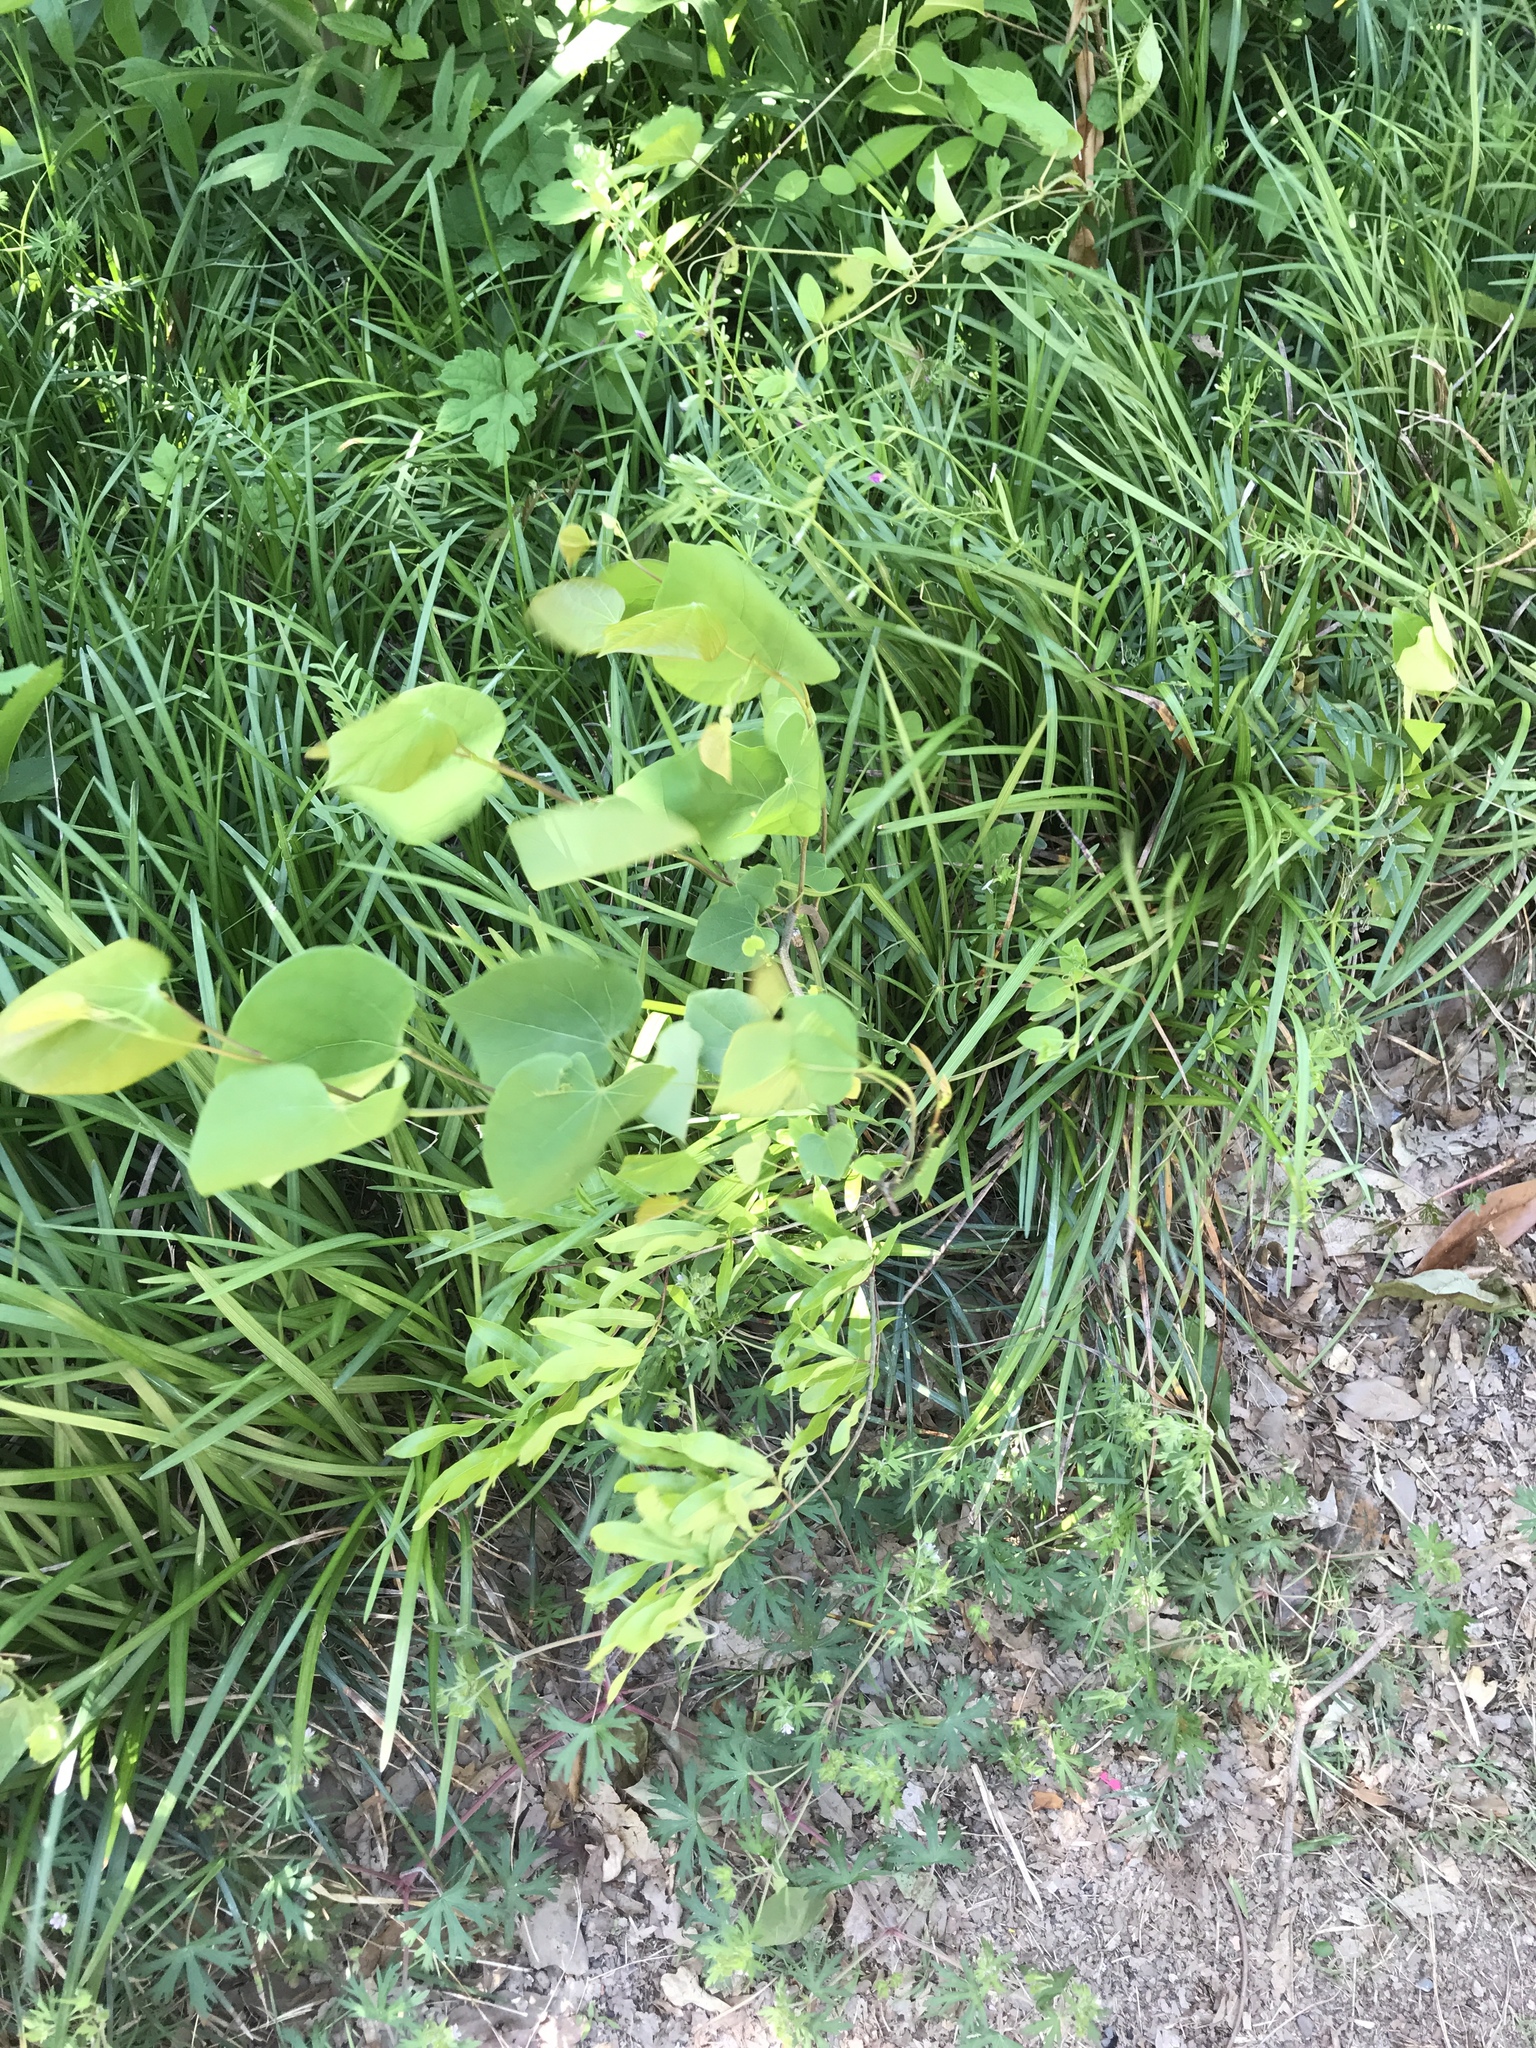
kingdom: Plantae
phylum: Tracheophyta
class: Magnoliopsida
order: Fabales
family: Fabaceae
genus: Cercis
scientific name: Cercis canadensis
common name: Eastern redbud
